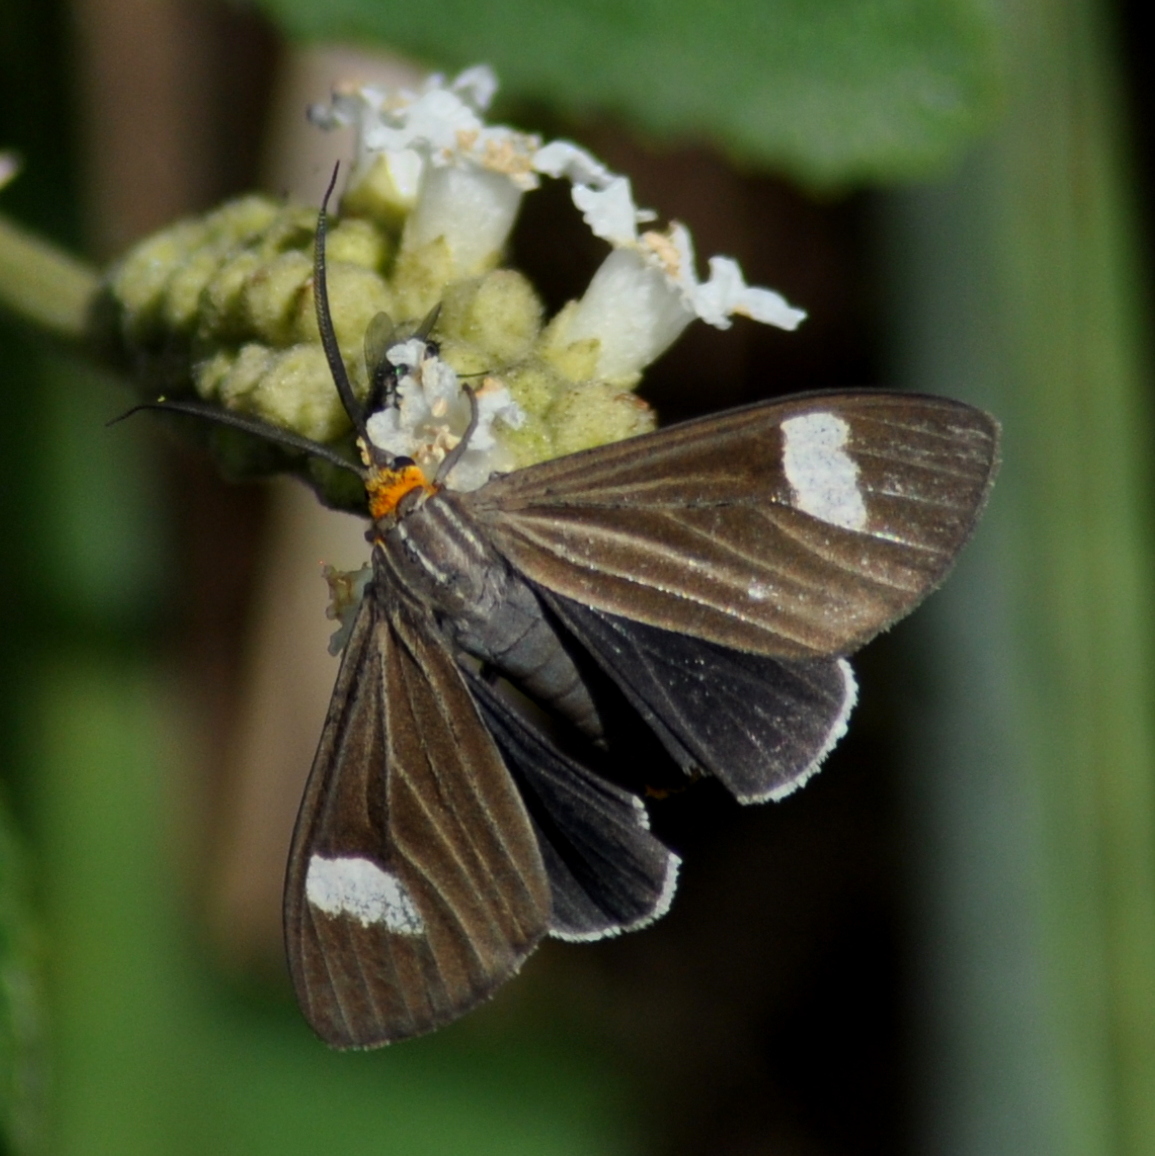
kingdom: Animalia
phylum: Arthropoda
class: Insecta
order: Lepidoptera
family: Erebidae
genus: Calodesma
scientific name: Calodesma collaris
